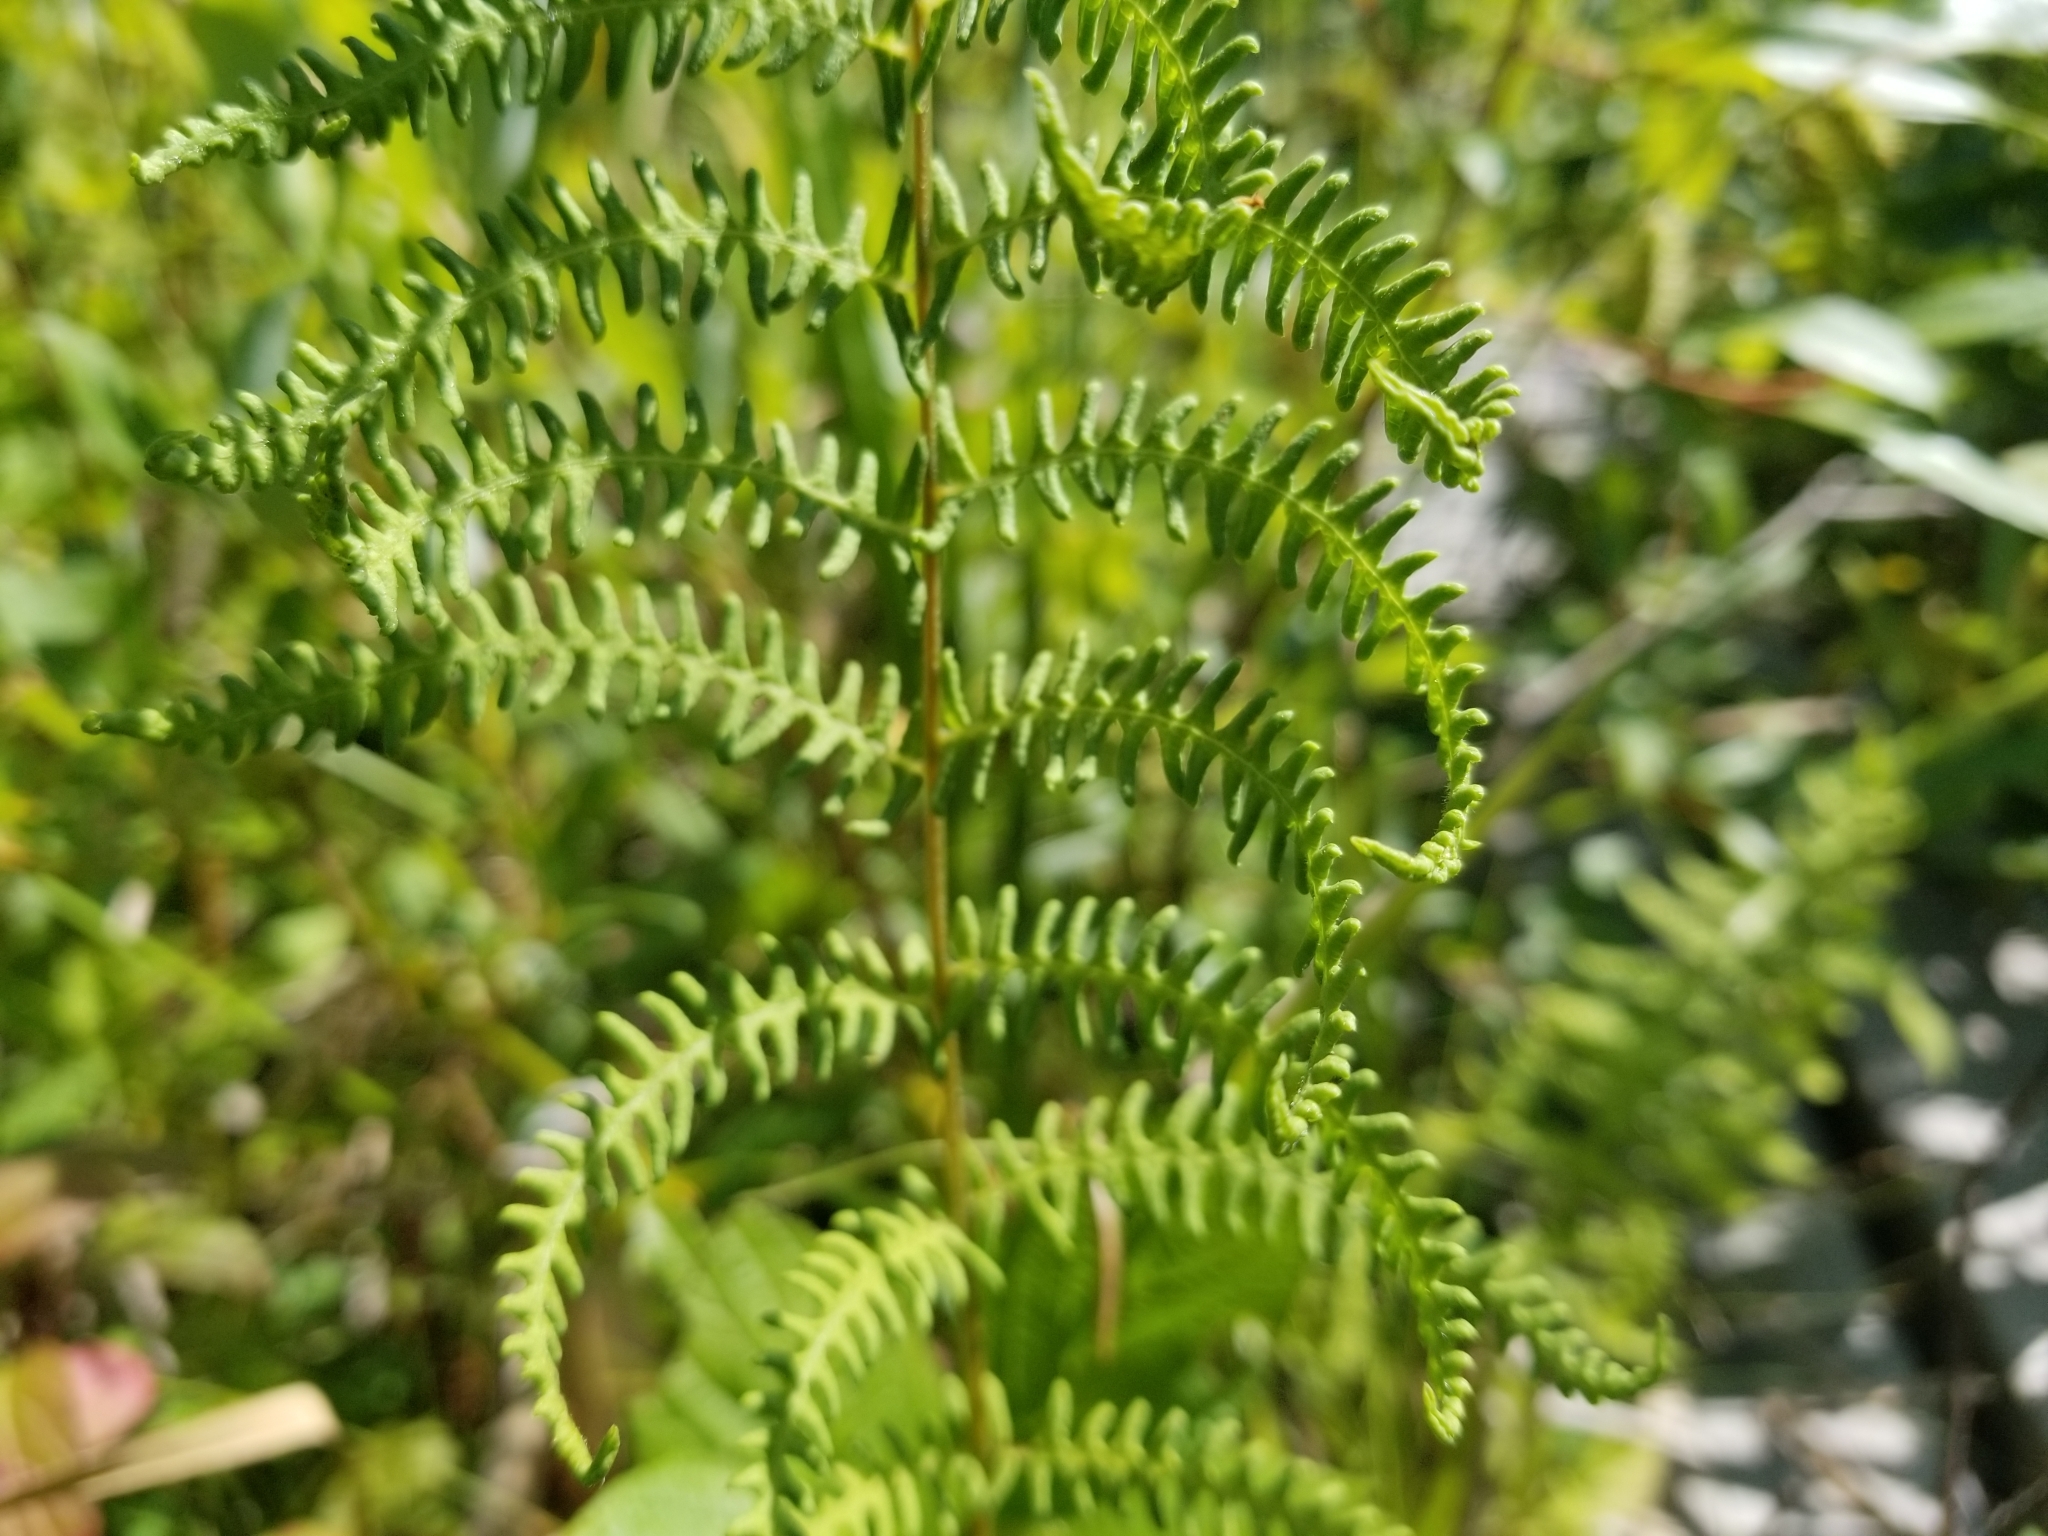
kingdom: Plantae
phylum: Tracheophyta
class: Polypodiopsida
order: Polypodiales
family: Thelypteridaceae
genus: Thelypteris
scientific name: Thelypteris palustris
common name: Marsh fern
